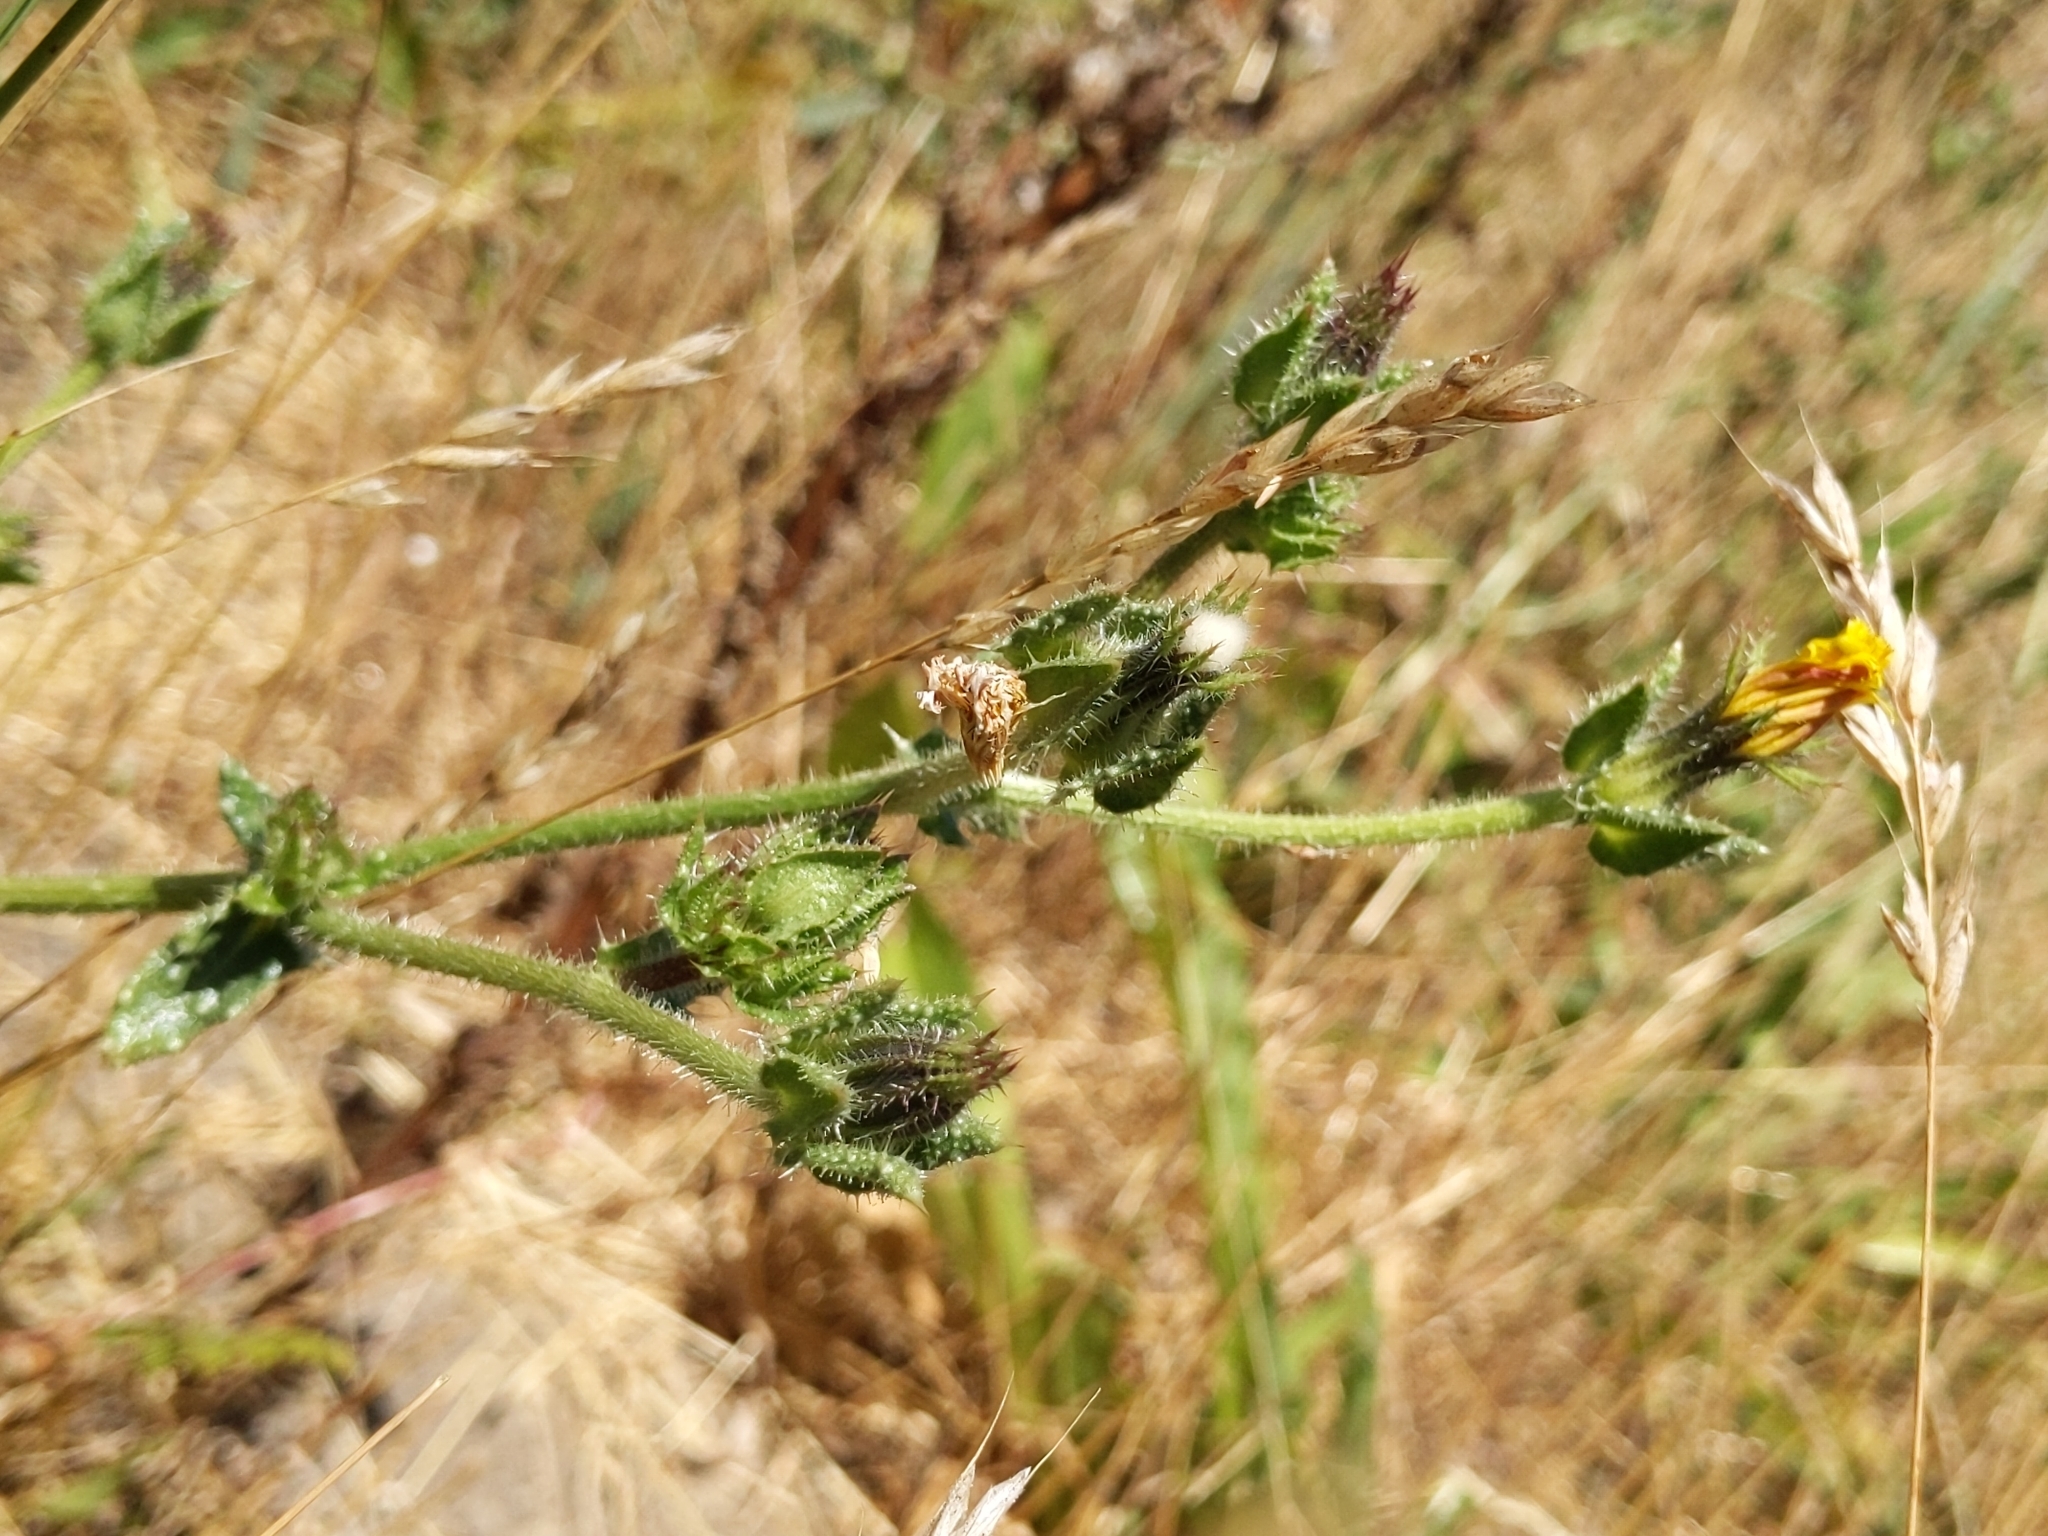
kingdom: Plantae
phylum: Tracheophyta
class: Magnoliopsida
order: Asterales
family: Asteraceae
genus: Helminthotheca
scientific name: Helminthotheca echioides
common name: Ox-tongue
